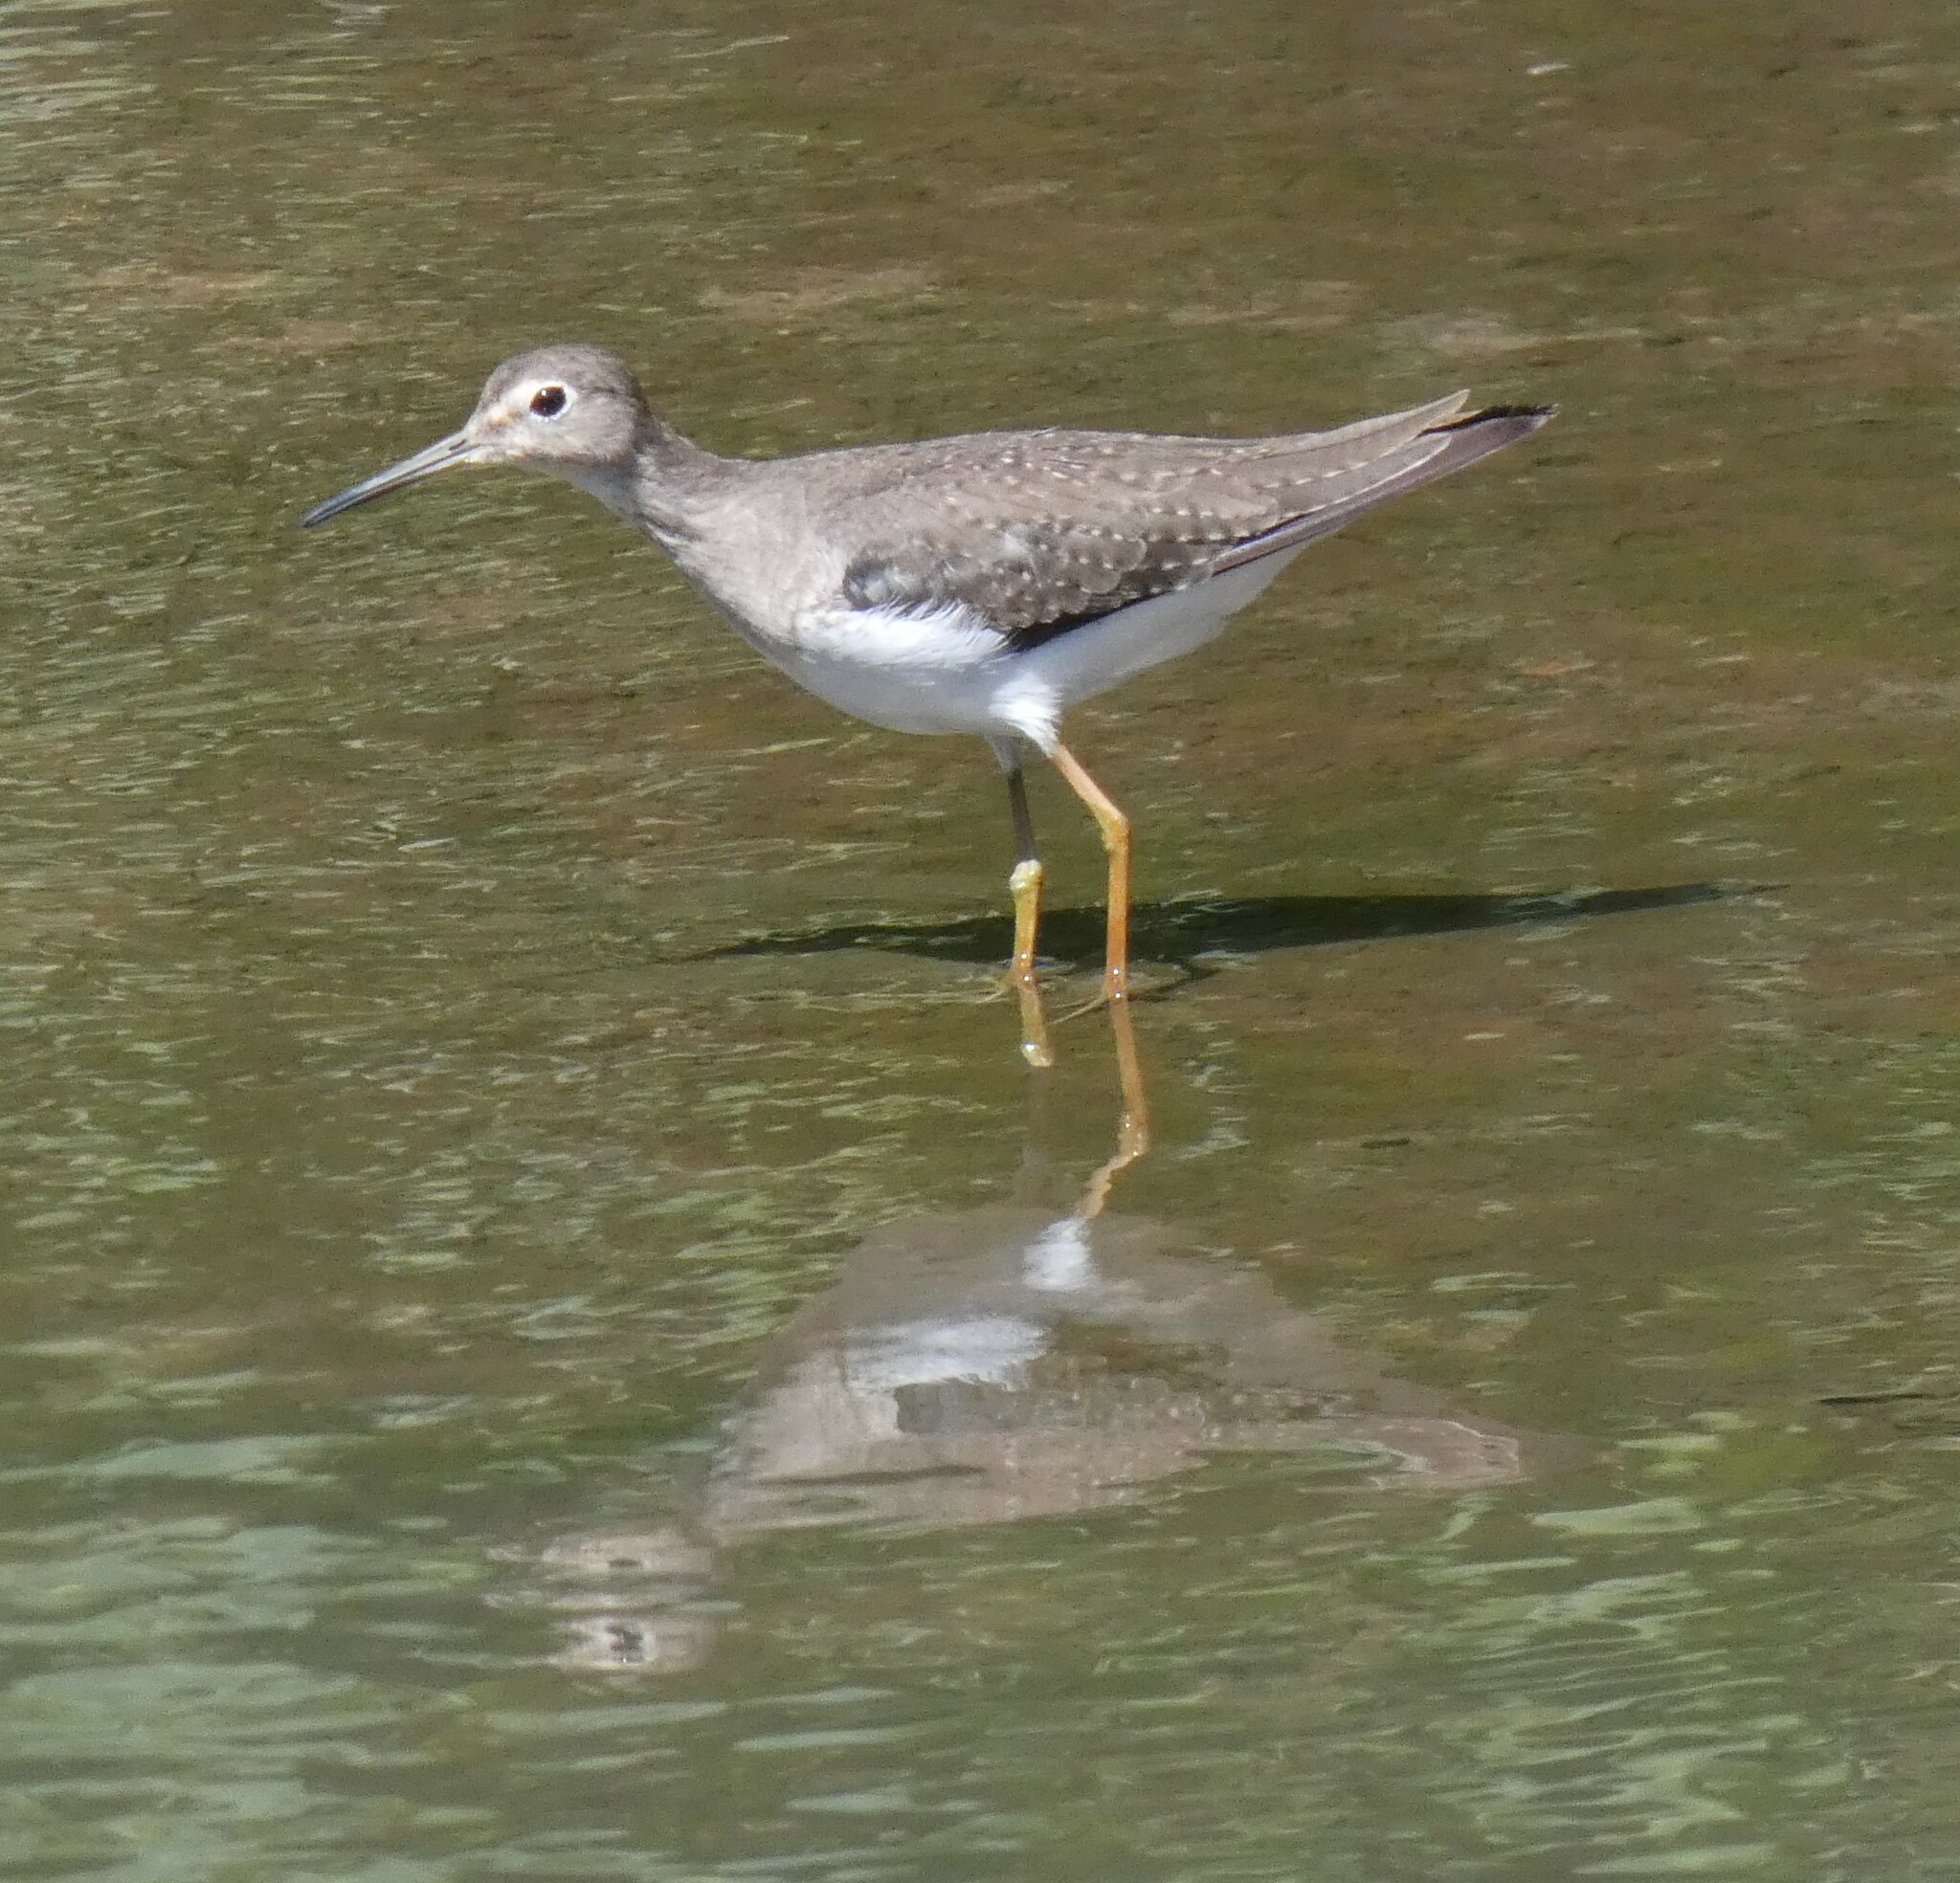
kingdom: Animalia
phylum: Chordata
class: Aves
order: Charadriiformes
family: Scolopacidae
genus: Tringa
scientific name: Tringa solitaria
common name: Solitary sandpiper
